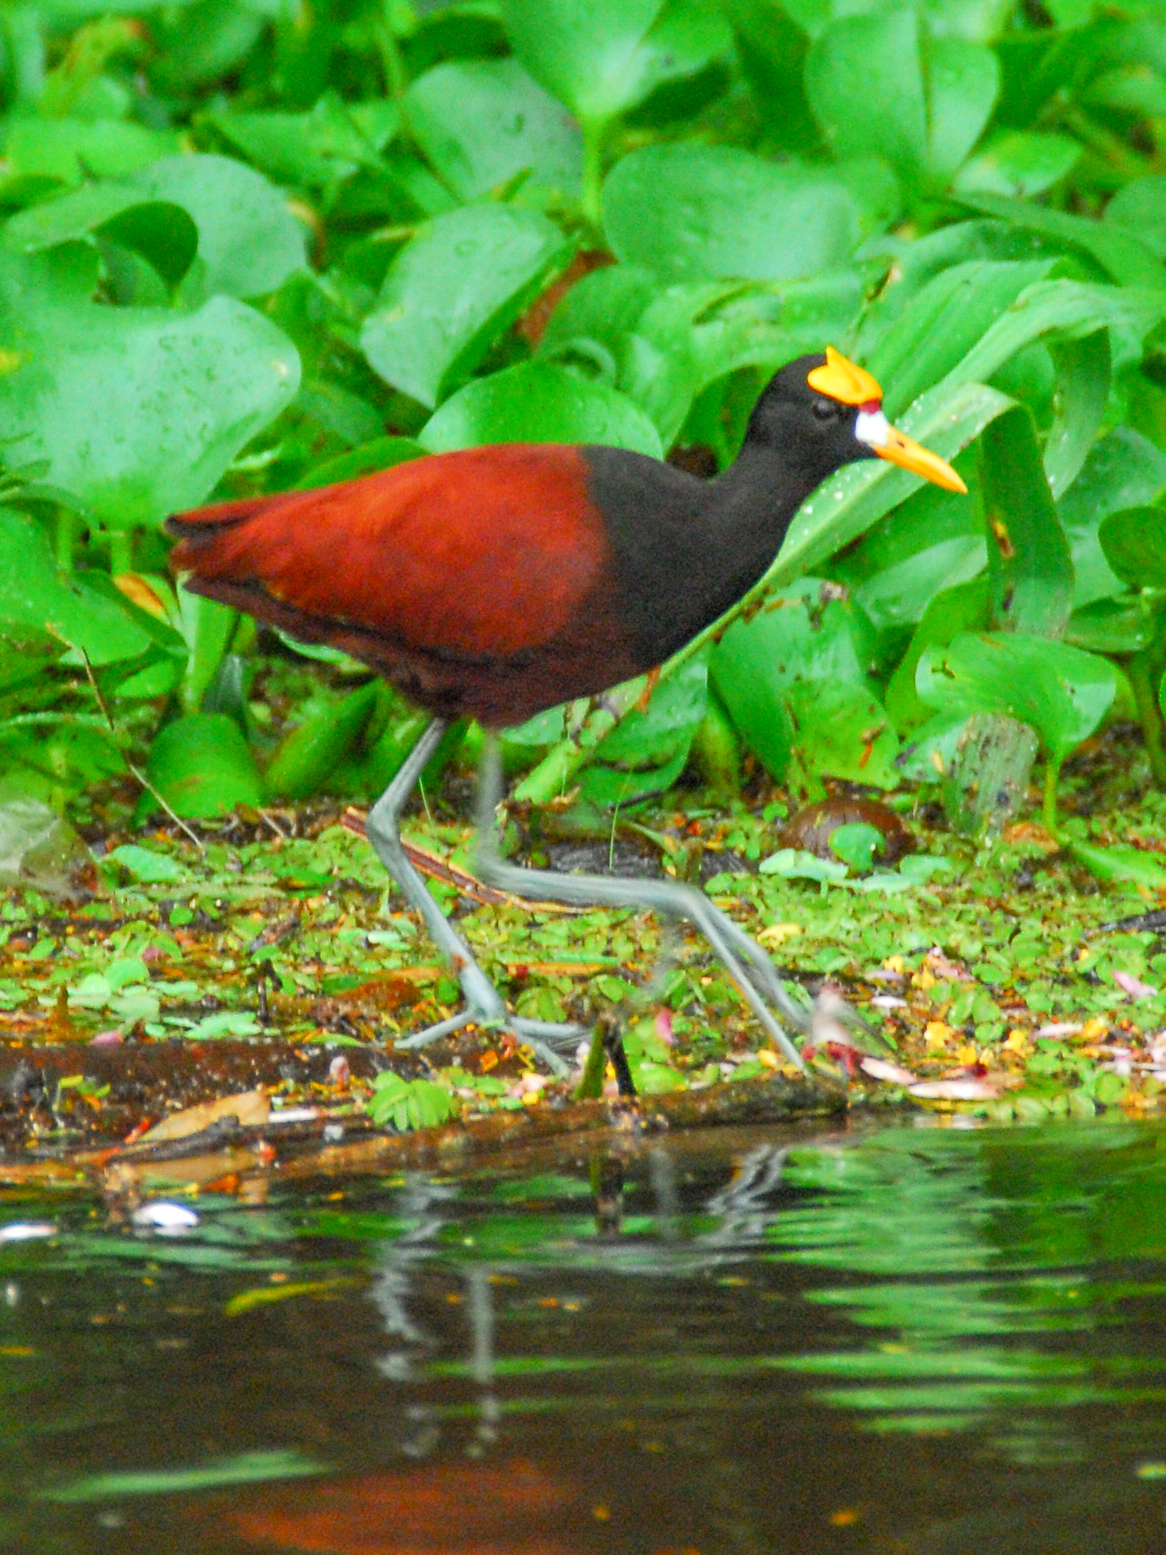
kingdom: Animalia
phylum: Chordata
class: Aves
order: Charadriiformes
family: Jacanidae
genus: Jacana
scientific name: Jacana spinosa
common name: Northern jacana
